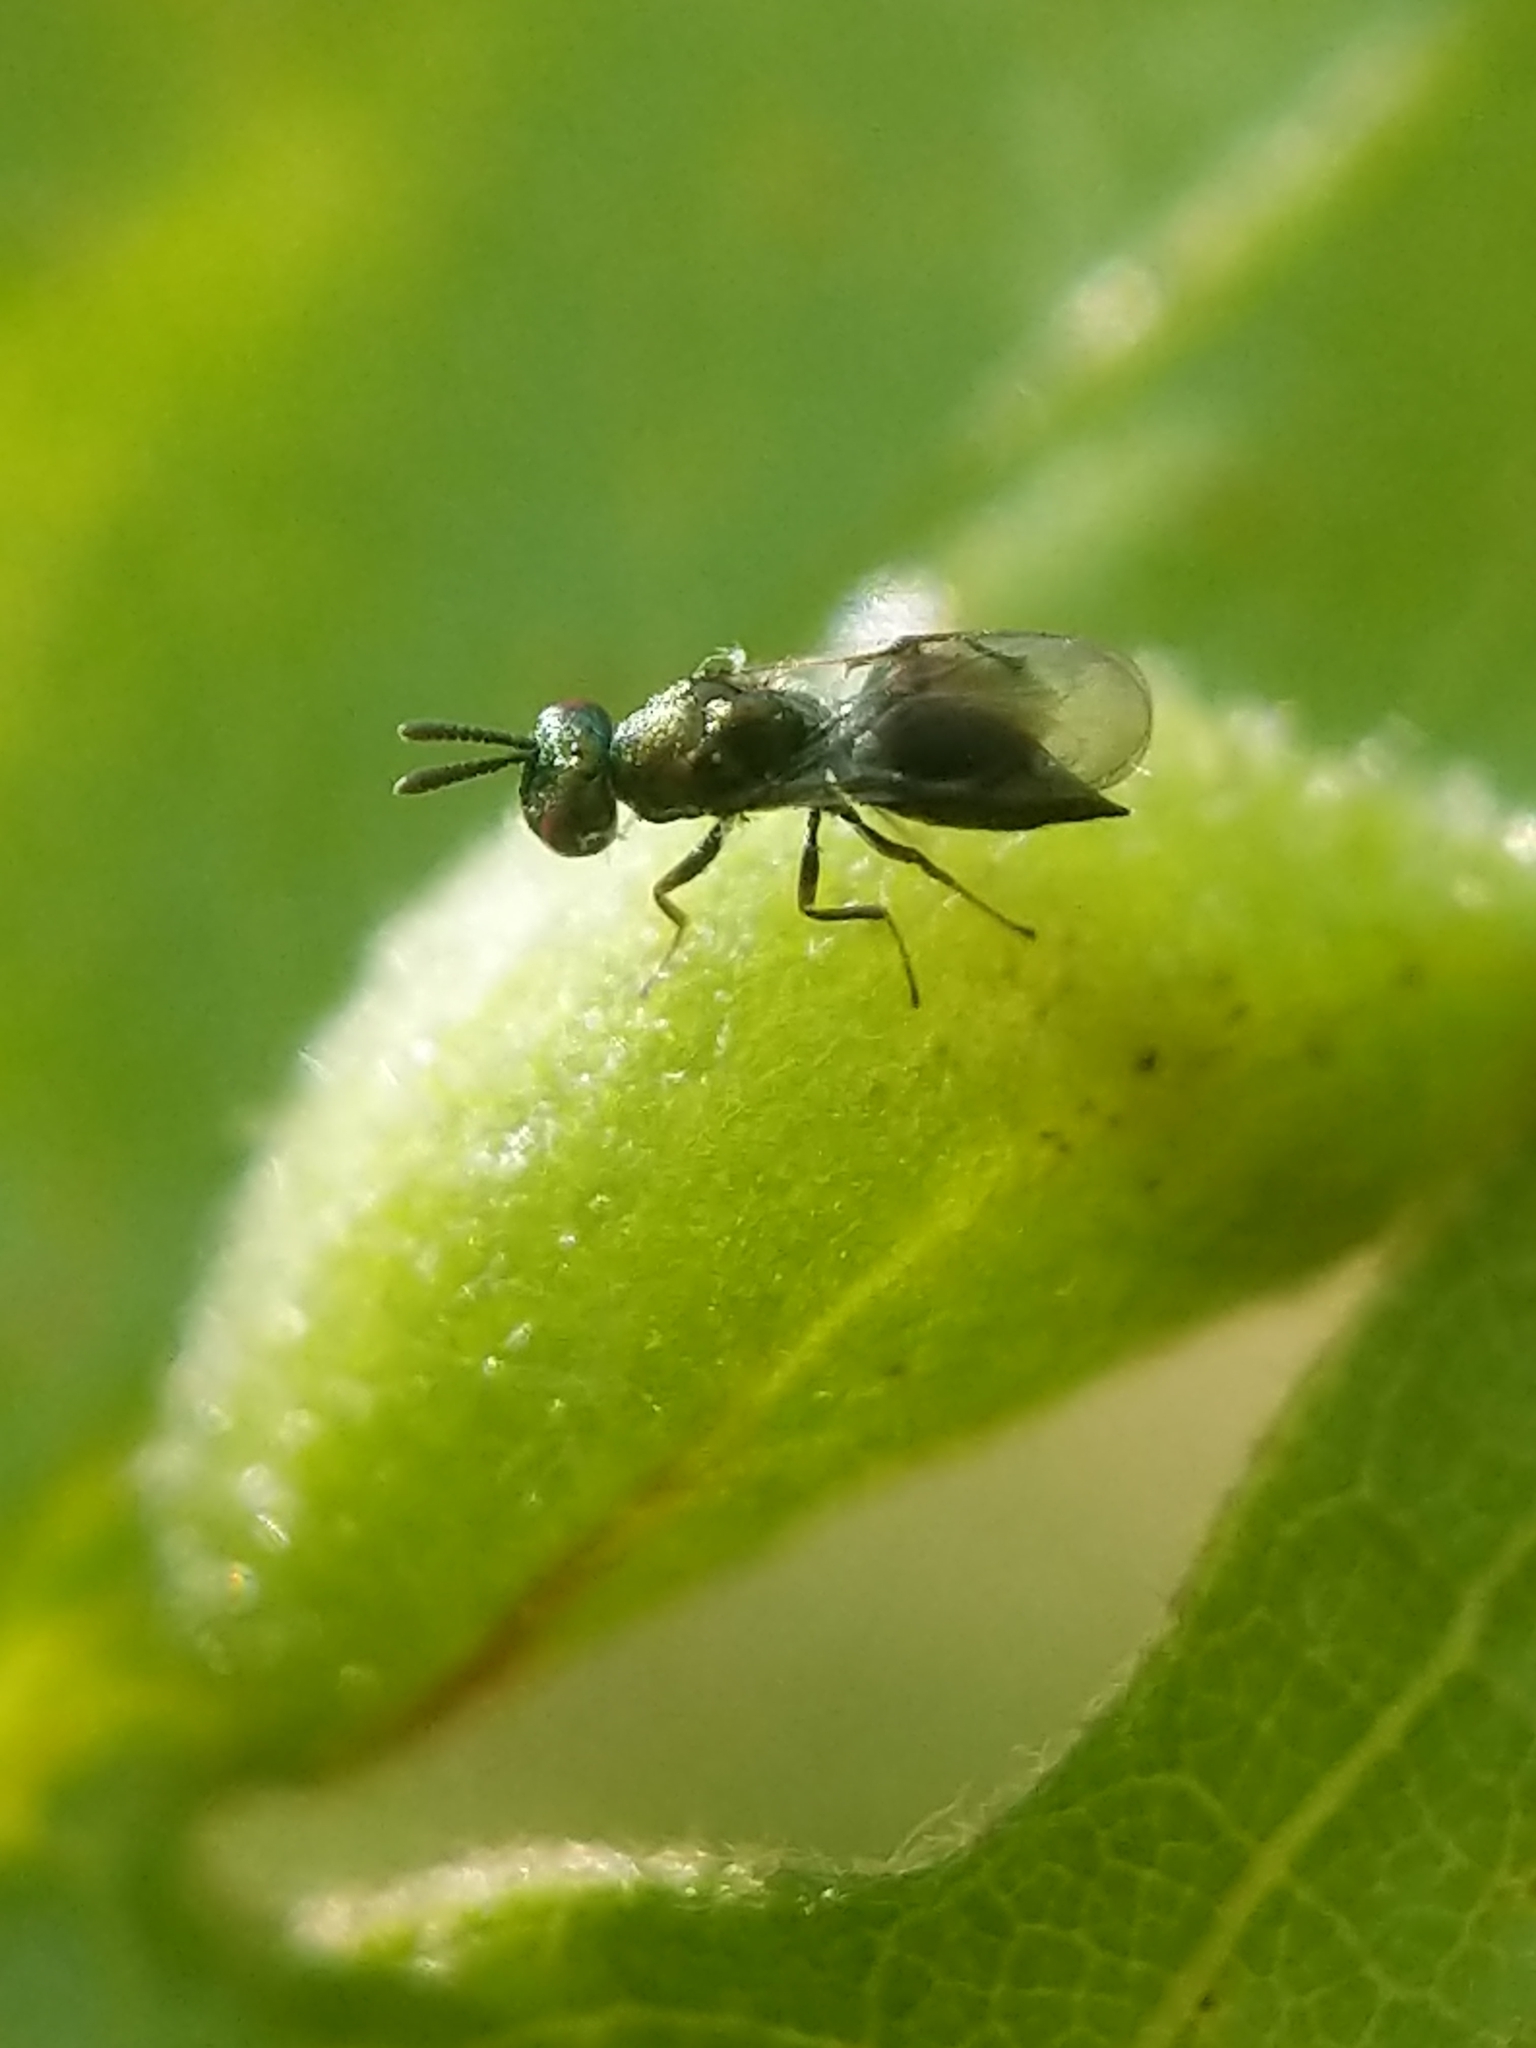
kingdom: Animalia
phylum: Arthropoda
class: Insecta
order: Hymenoptera
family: Cynipidae
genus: Dryocosmus
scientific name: Dryocosmus
